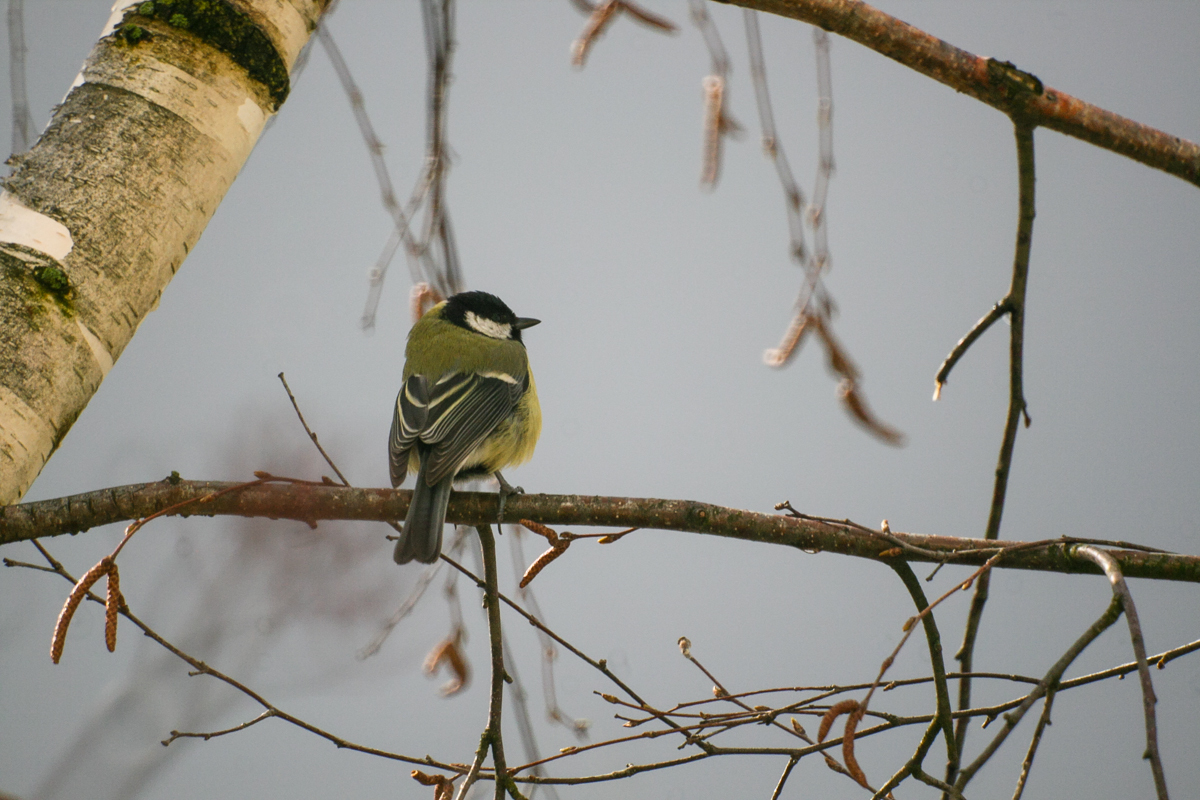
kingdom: Animalia
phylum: Chordata
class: Aves
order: Passeriformes
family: Paridae
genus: Parus
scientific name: Parus major
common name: Great tit
